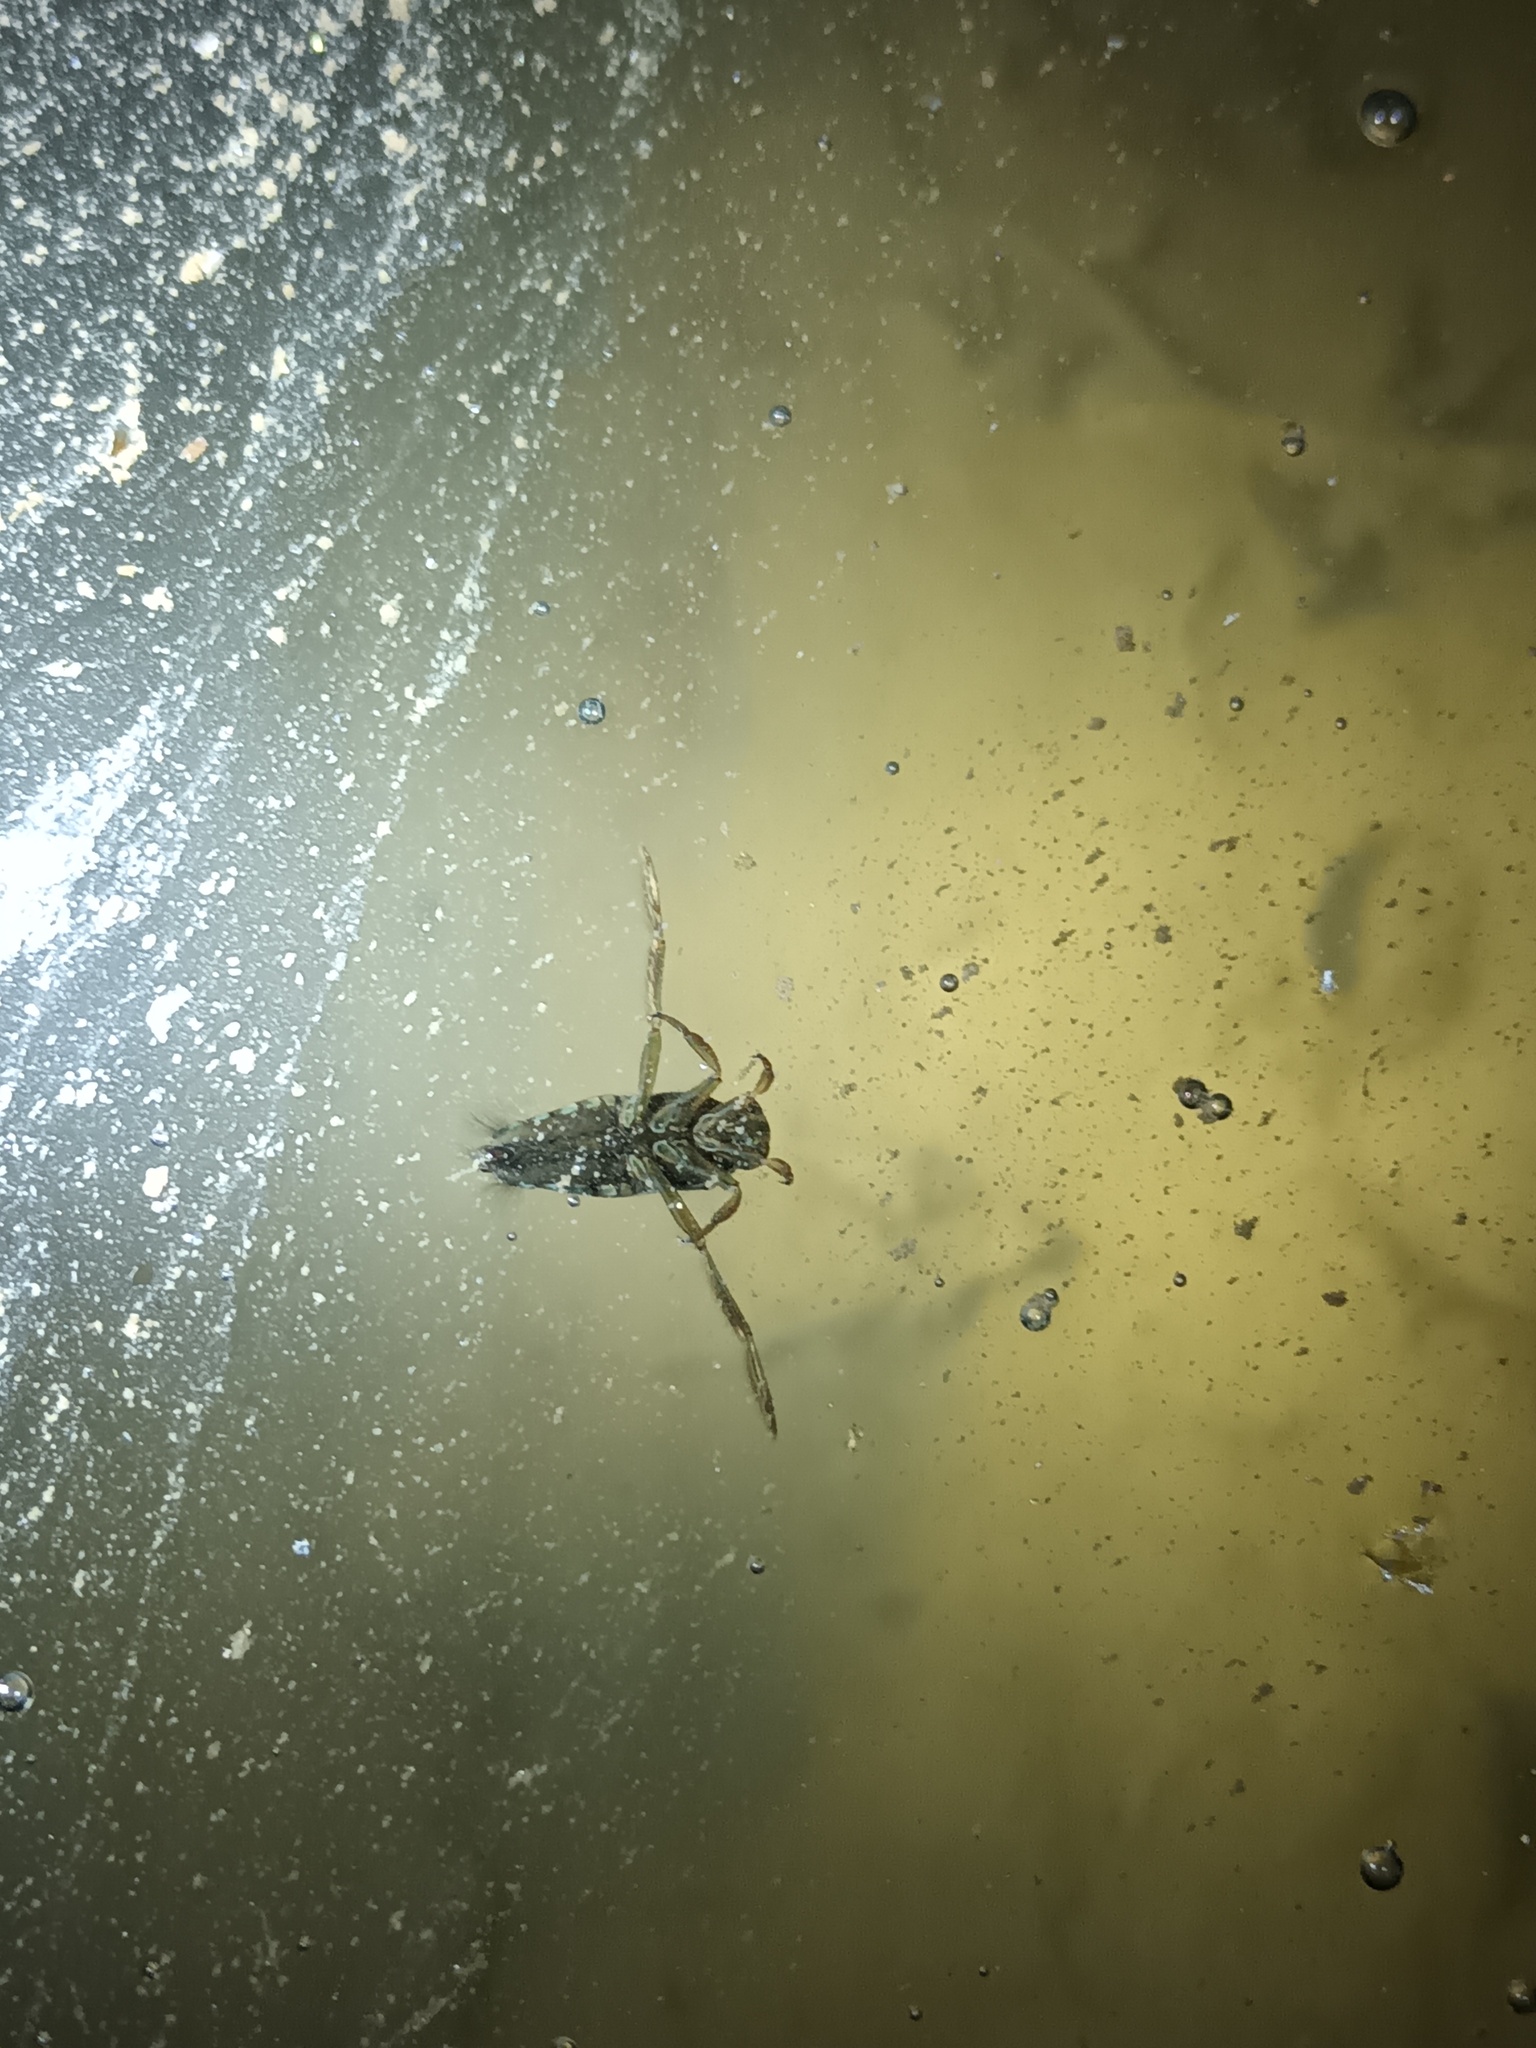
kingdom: Animalia
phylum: Arthropoda
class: Insecta
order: Hemiptera
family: Notonectidae
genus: Notonecta
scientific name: Notonecta
